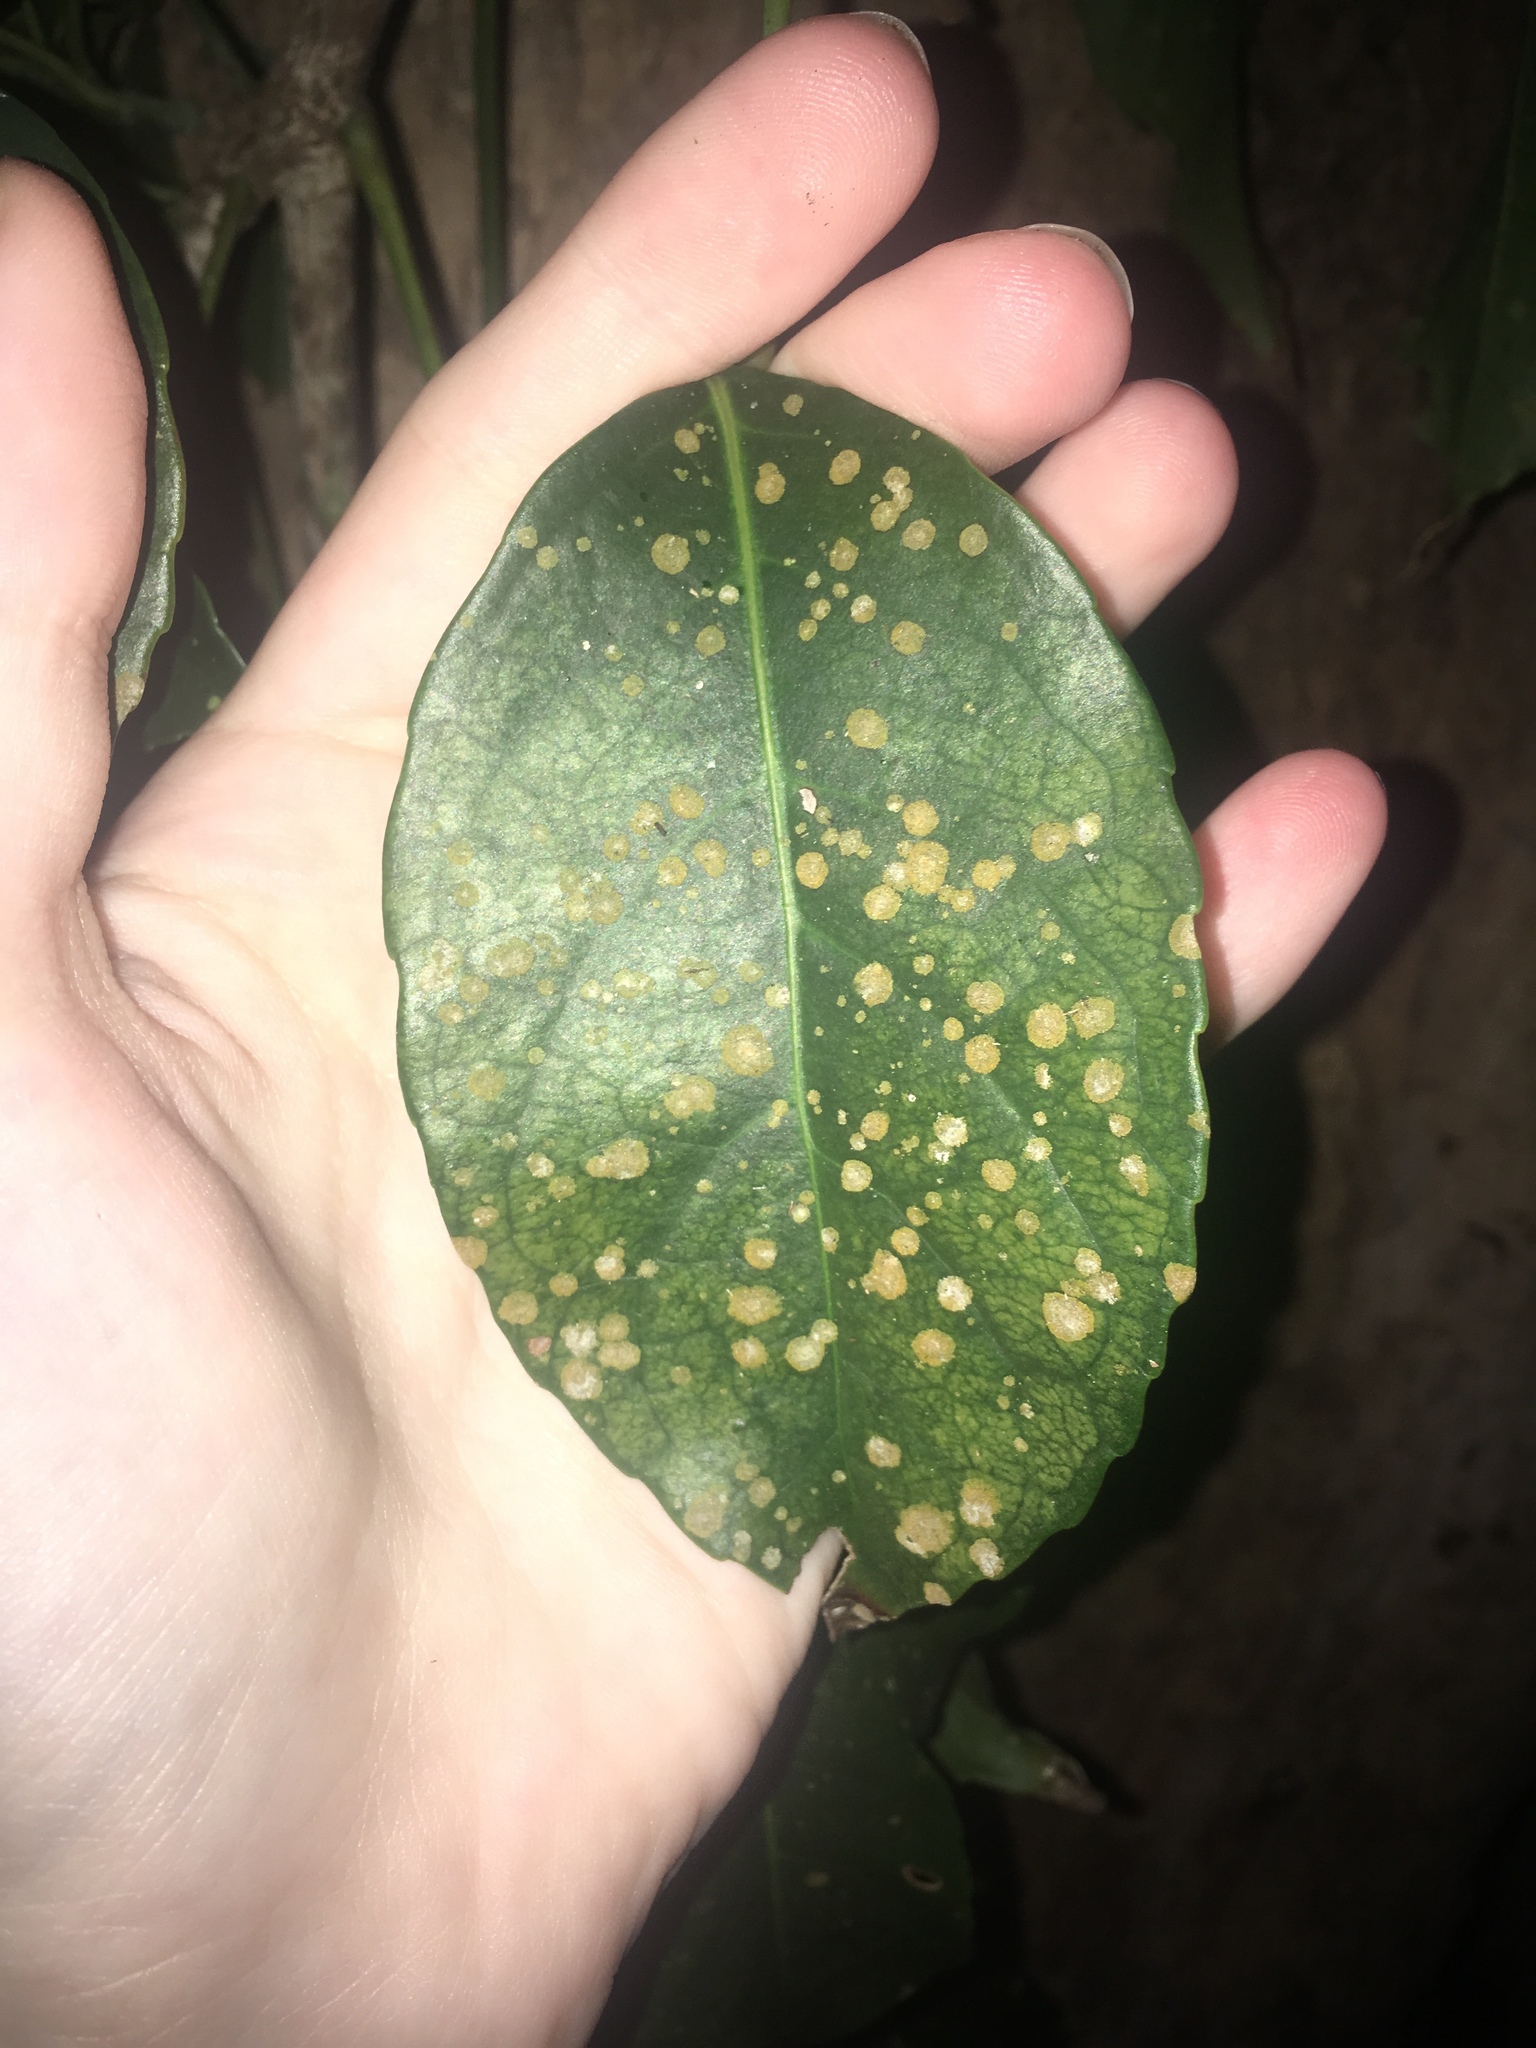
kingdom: Plantae
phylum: Chlorophyta
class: Ulvophyceae
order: Trentepohliales
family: Trentepohliaceae
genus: Cephaleuros
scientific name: Cephaleuros virescens
